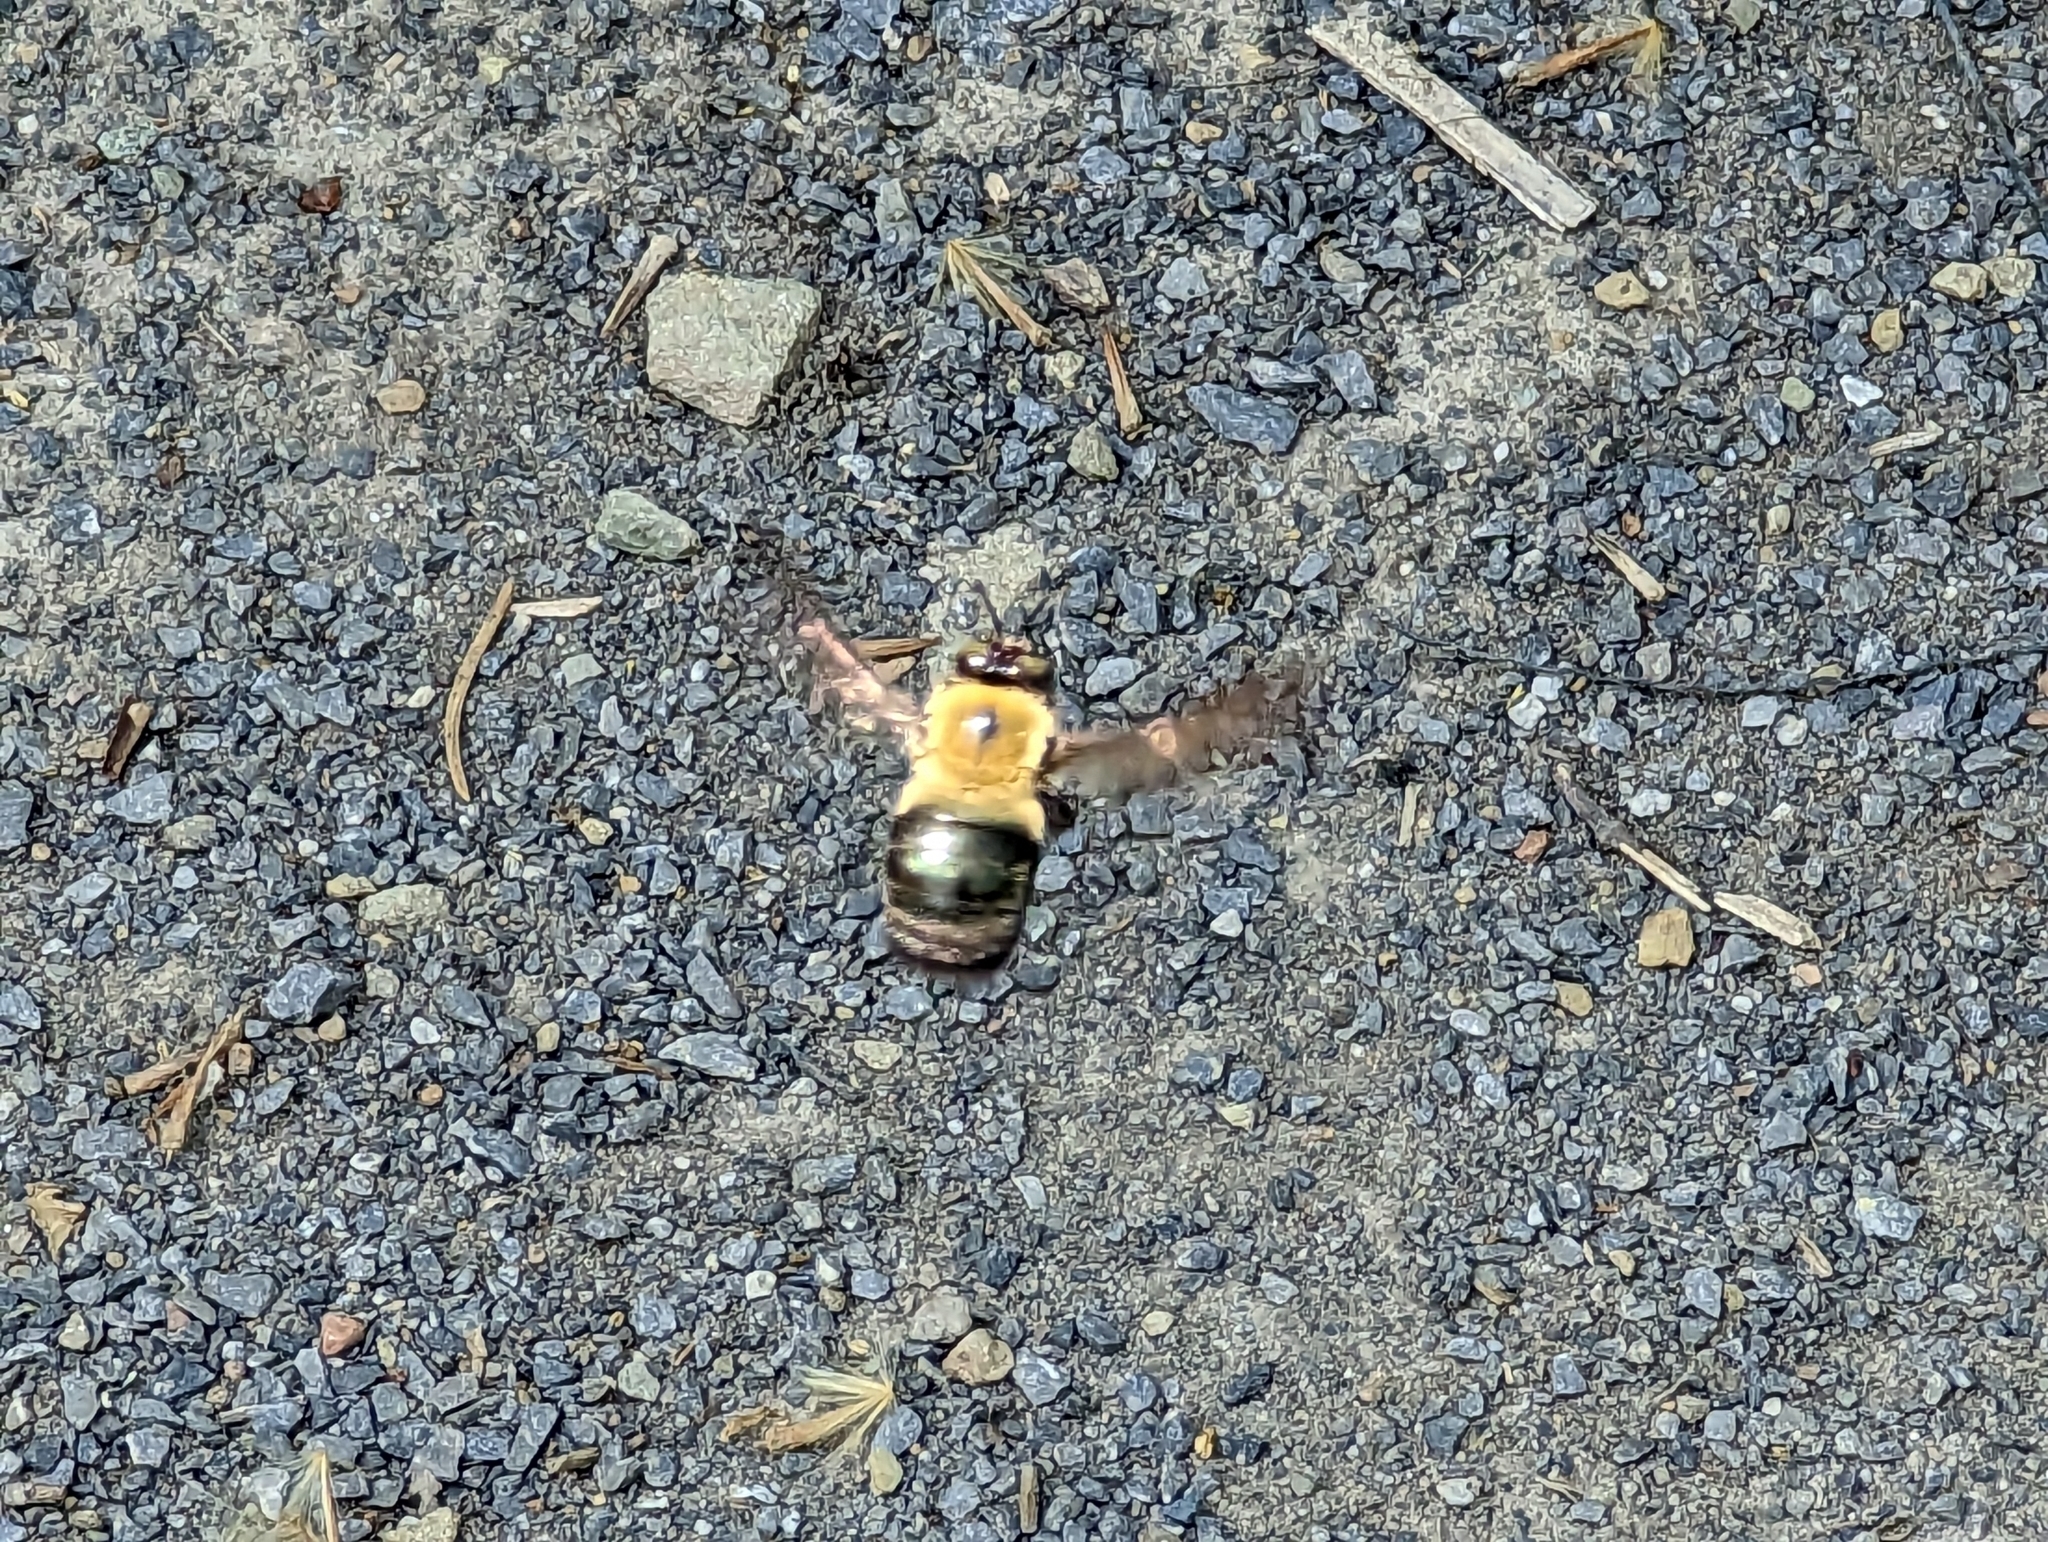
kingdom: Animalia
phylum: Arthropoda
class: Insecta
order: Hymenoptera
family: Apidae
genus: Xylocopa
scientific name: Xylocopa virginica
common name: Carpenter bee
